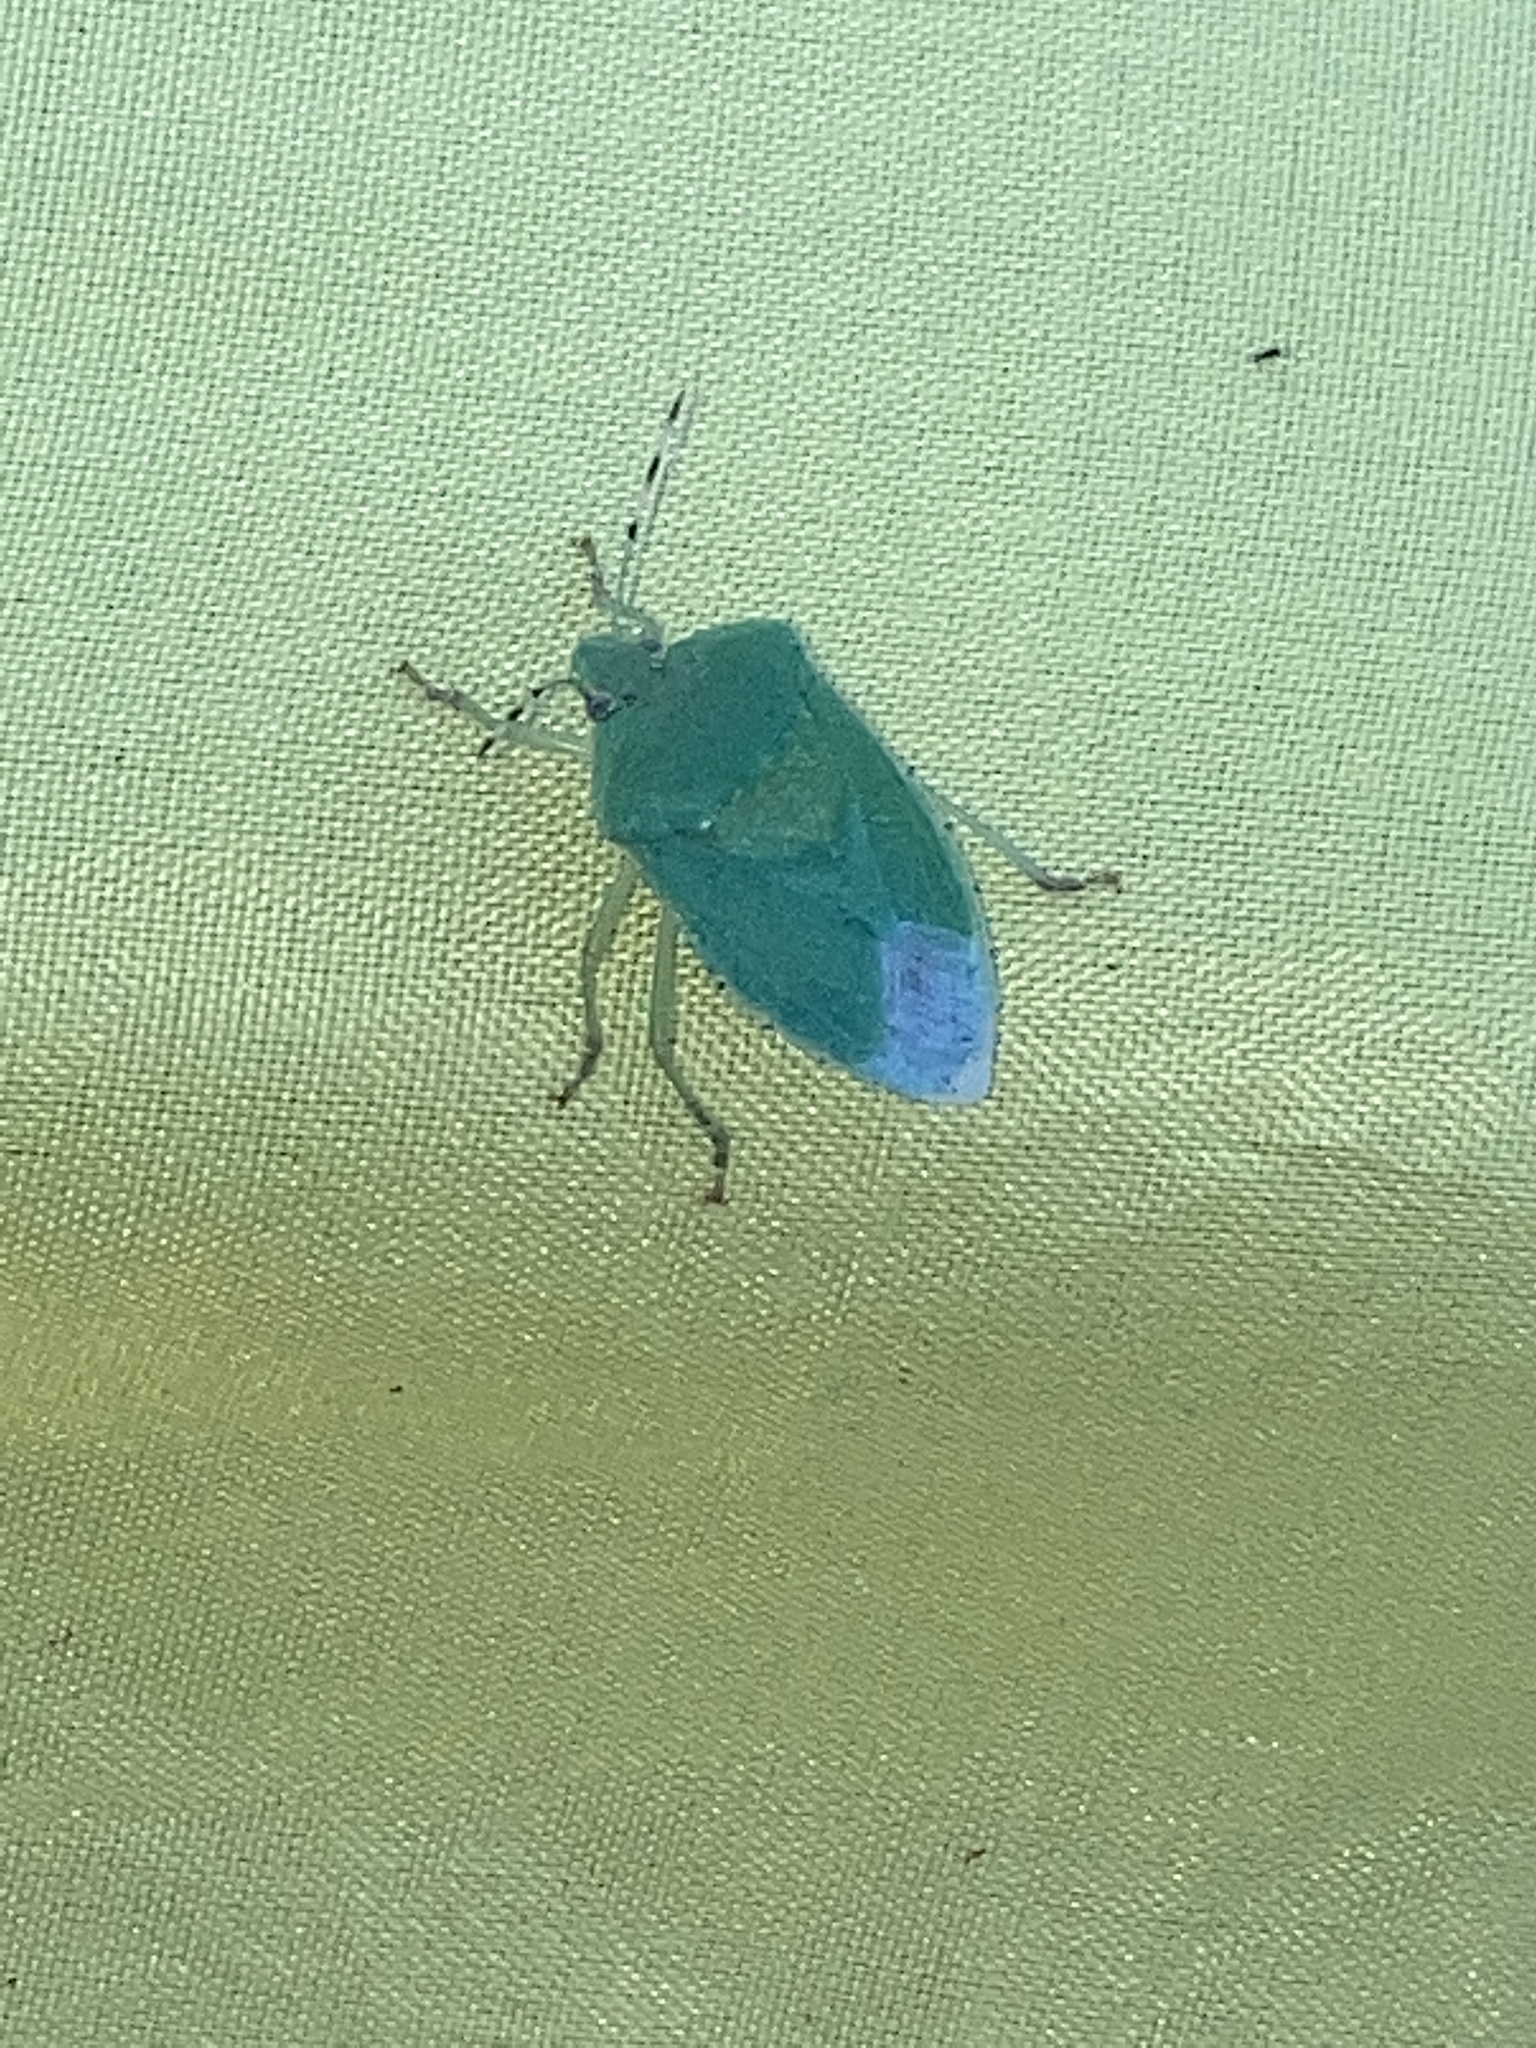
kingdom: Animalia
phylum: Arthropoda
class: Insecta
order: Hemiptera
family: Pentatomidae
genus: Chinavia
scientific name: Chinavia hilaris
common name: Green stink bug
